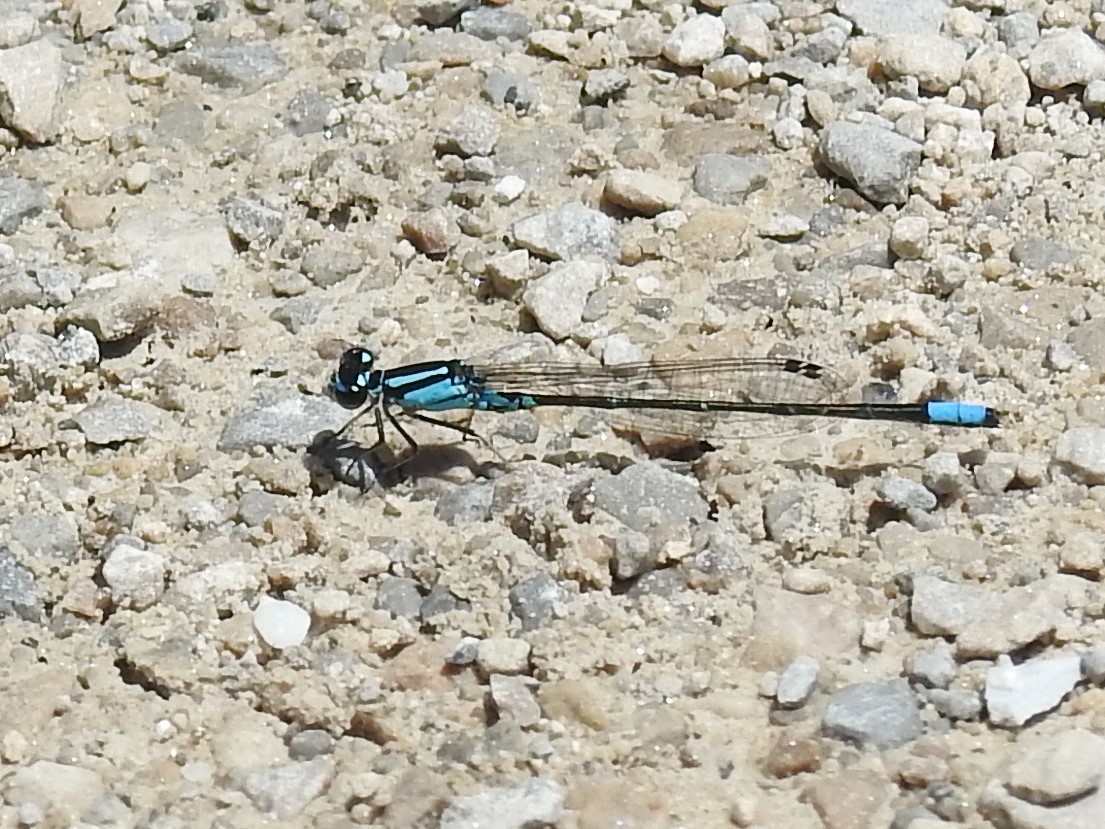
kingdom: Animalia
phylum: Arthropoda
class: Insecta
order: Odonata
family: Coenagrionidae
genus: Enallagma
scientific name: Enallagma geminatum
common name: Skimming bluet
